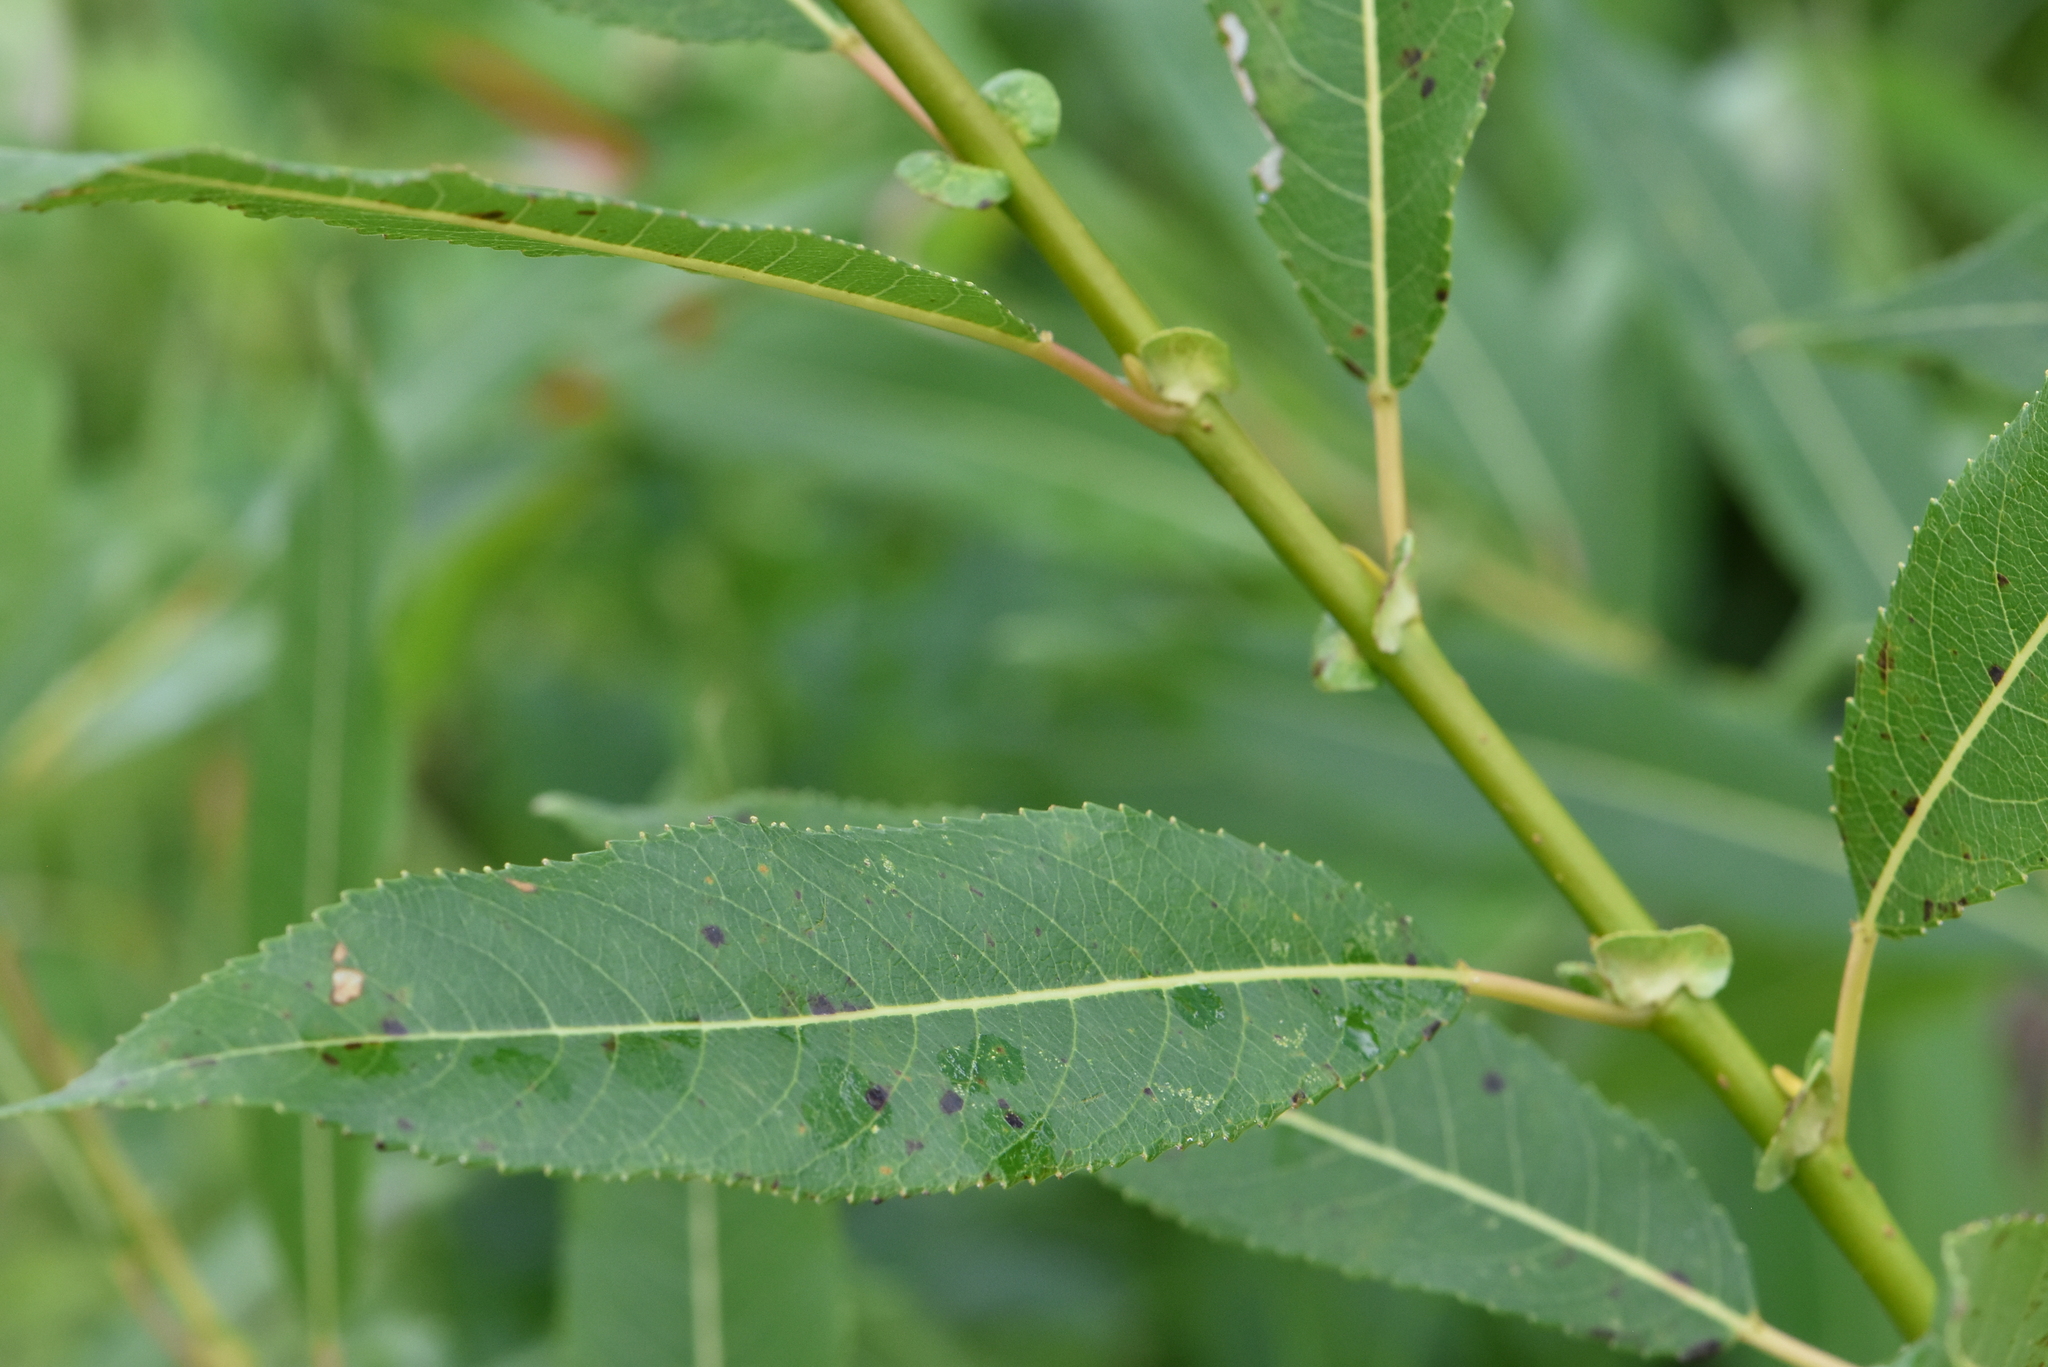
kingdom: Plantae
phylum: Tracheophyta
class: Magnoliopsida
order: Malpighiales
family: Salicaceae
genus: Salix
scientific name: Salix triandra
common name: Almond willow
